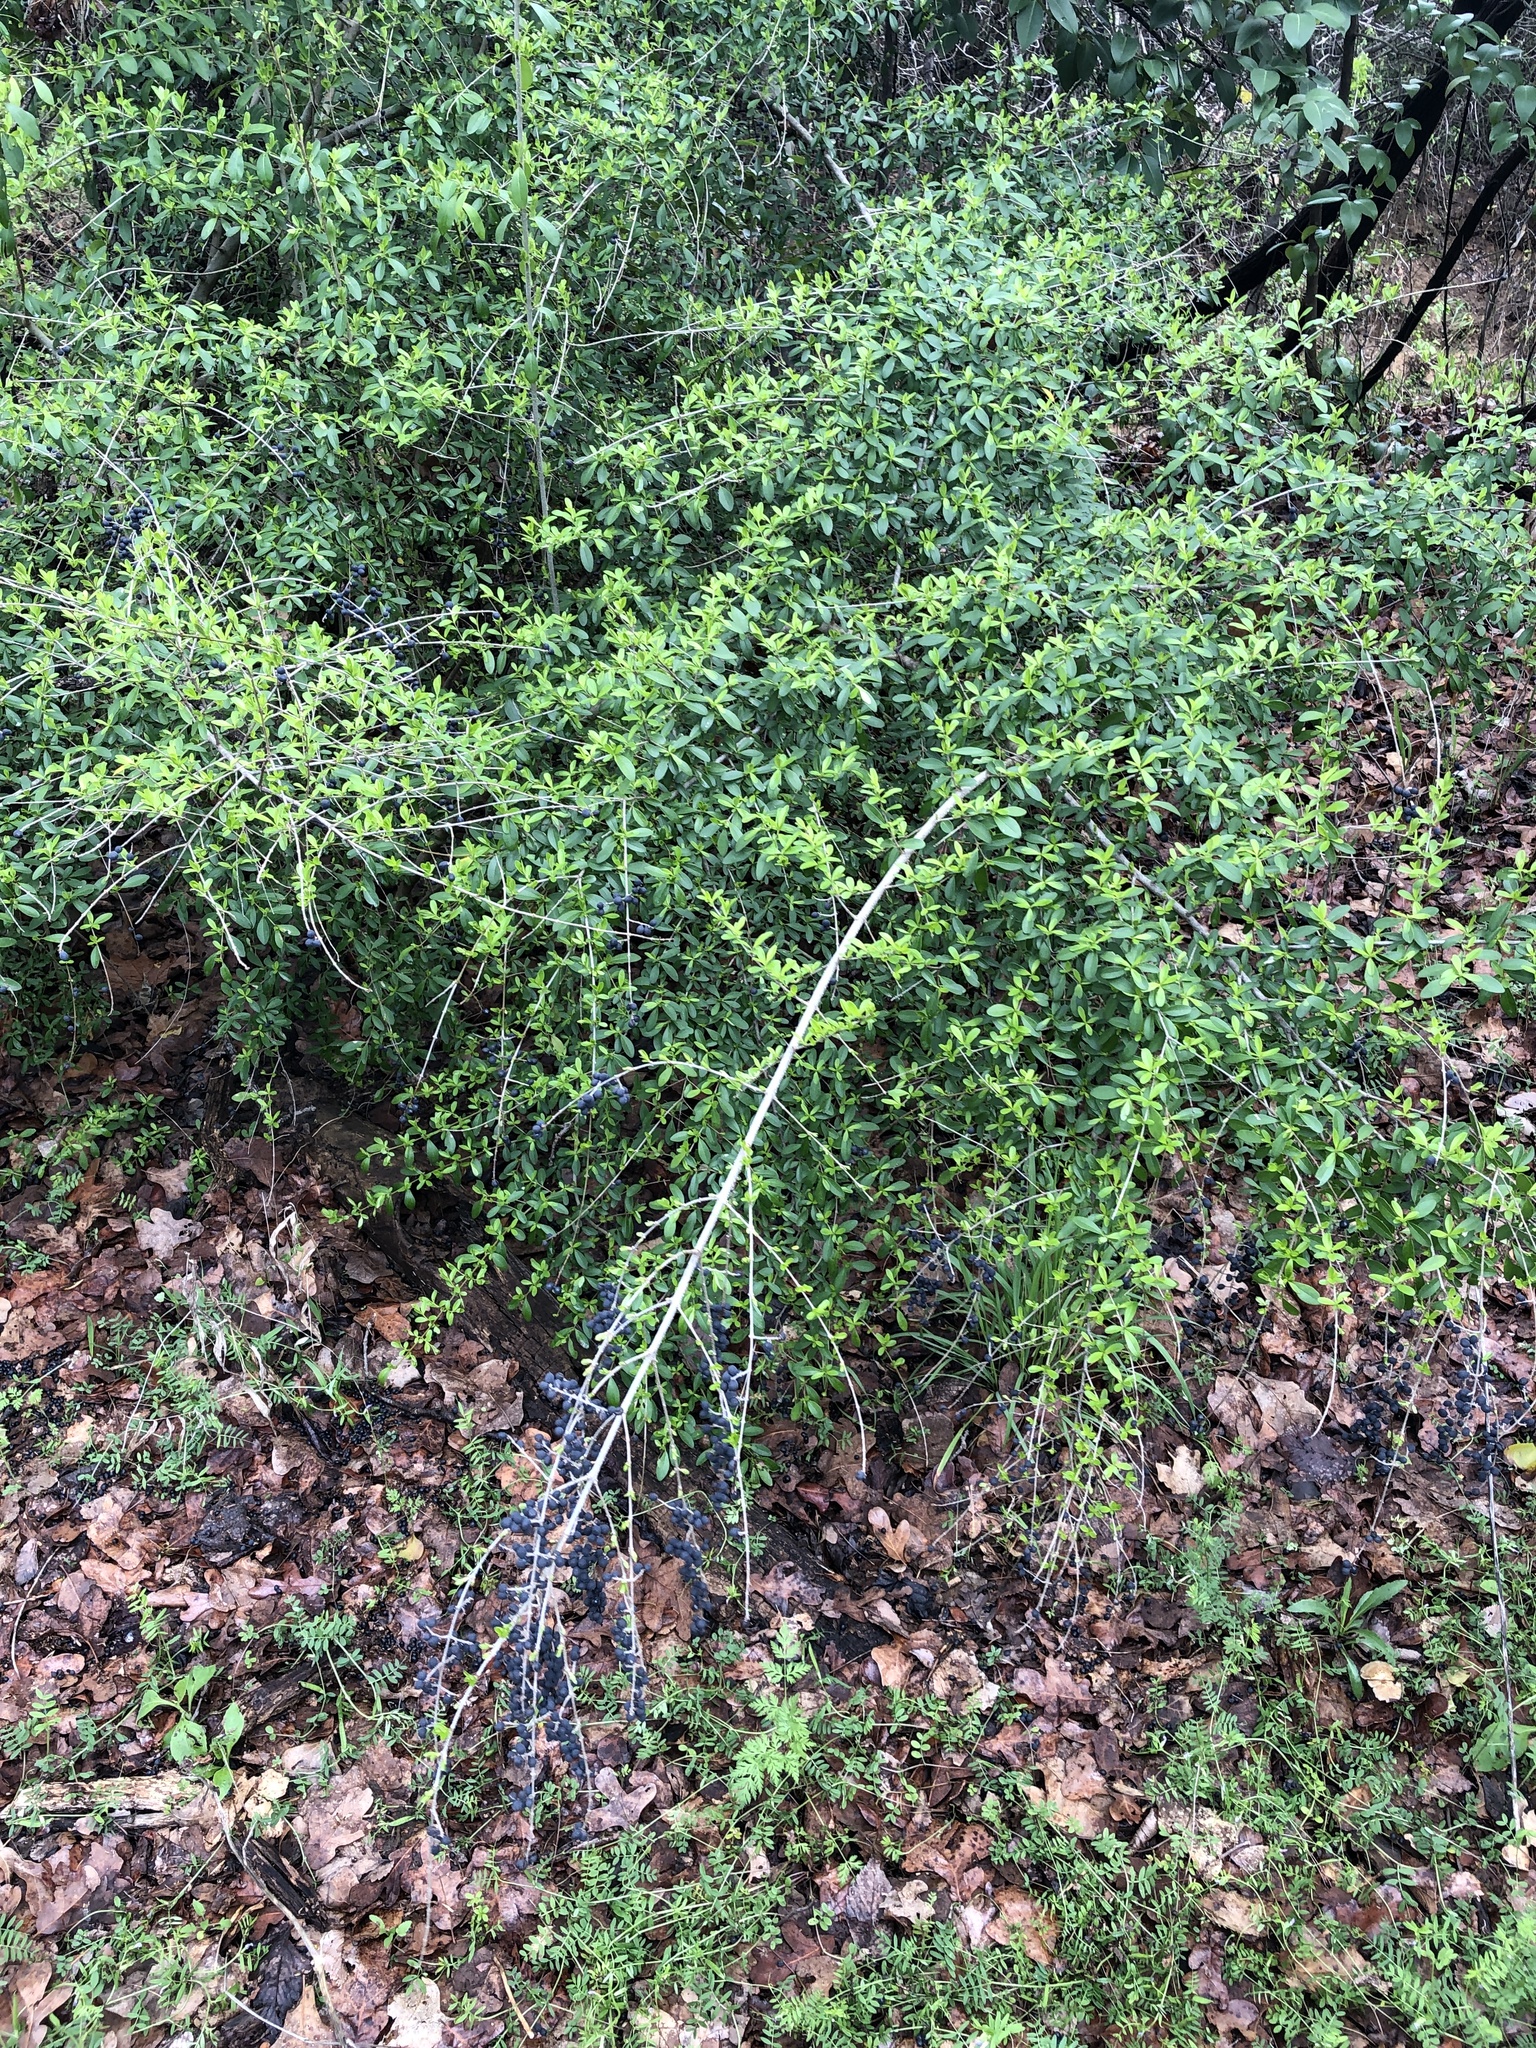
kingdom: Plantae
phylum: Tracheophyta
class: Magnoliopsida
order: Lamiales
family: Oleaceae
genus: Ligustrum
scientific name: Ligustrum quihoui
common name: Waxyleaf privet
